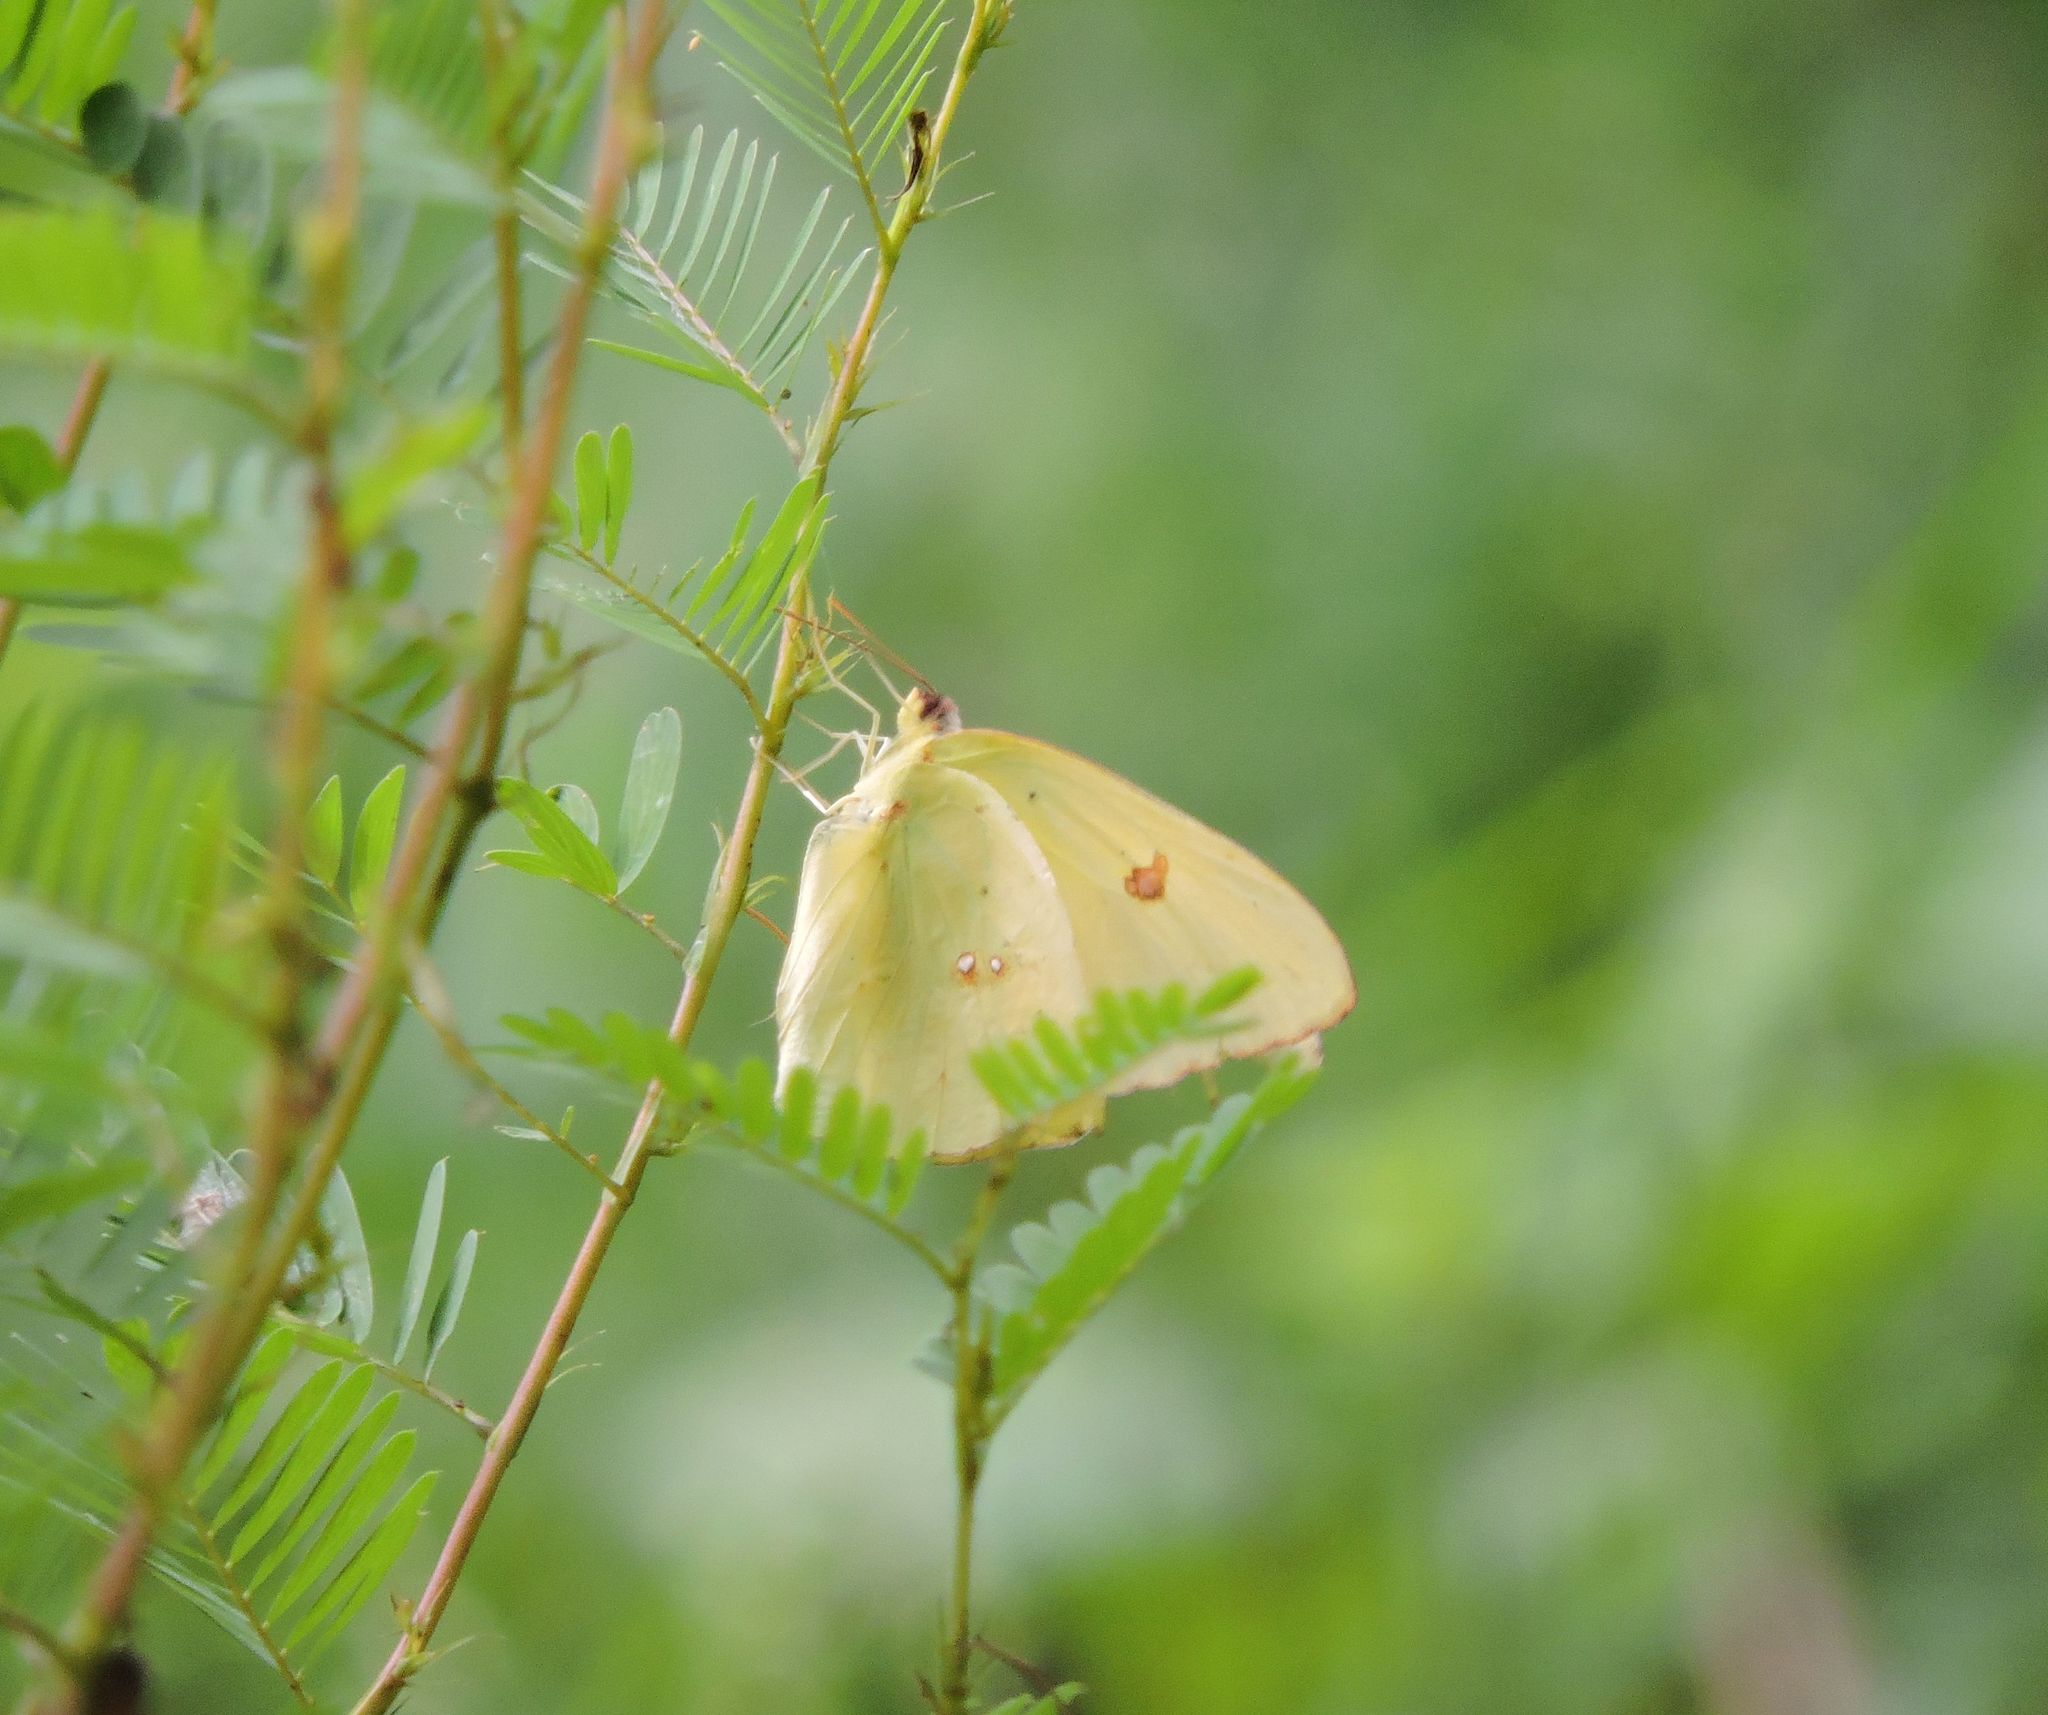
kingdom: Animalia
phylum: Arthropoda
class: Insecta
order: Lepidoptera
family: Pieridae
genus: Phoebis
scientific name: Phoebis sennae
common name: Cloudless sulphur
